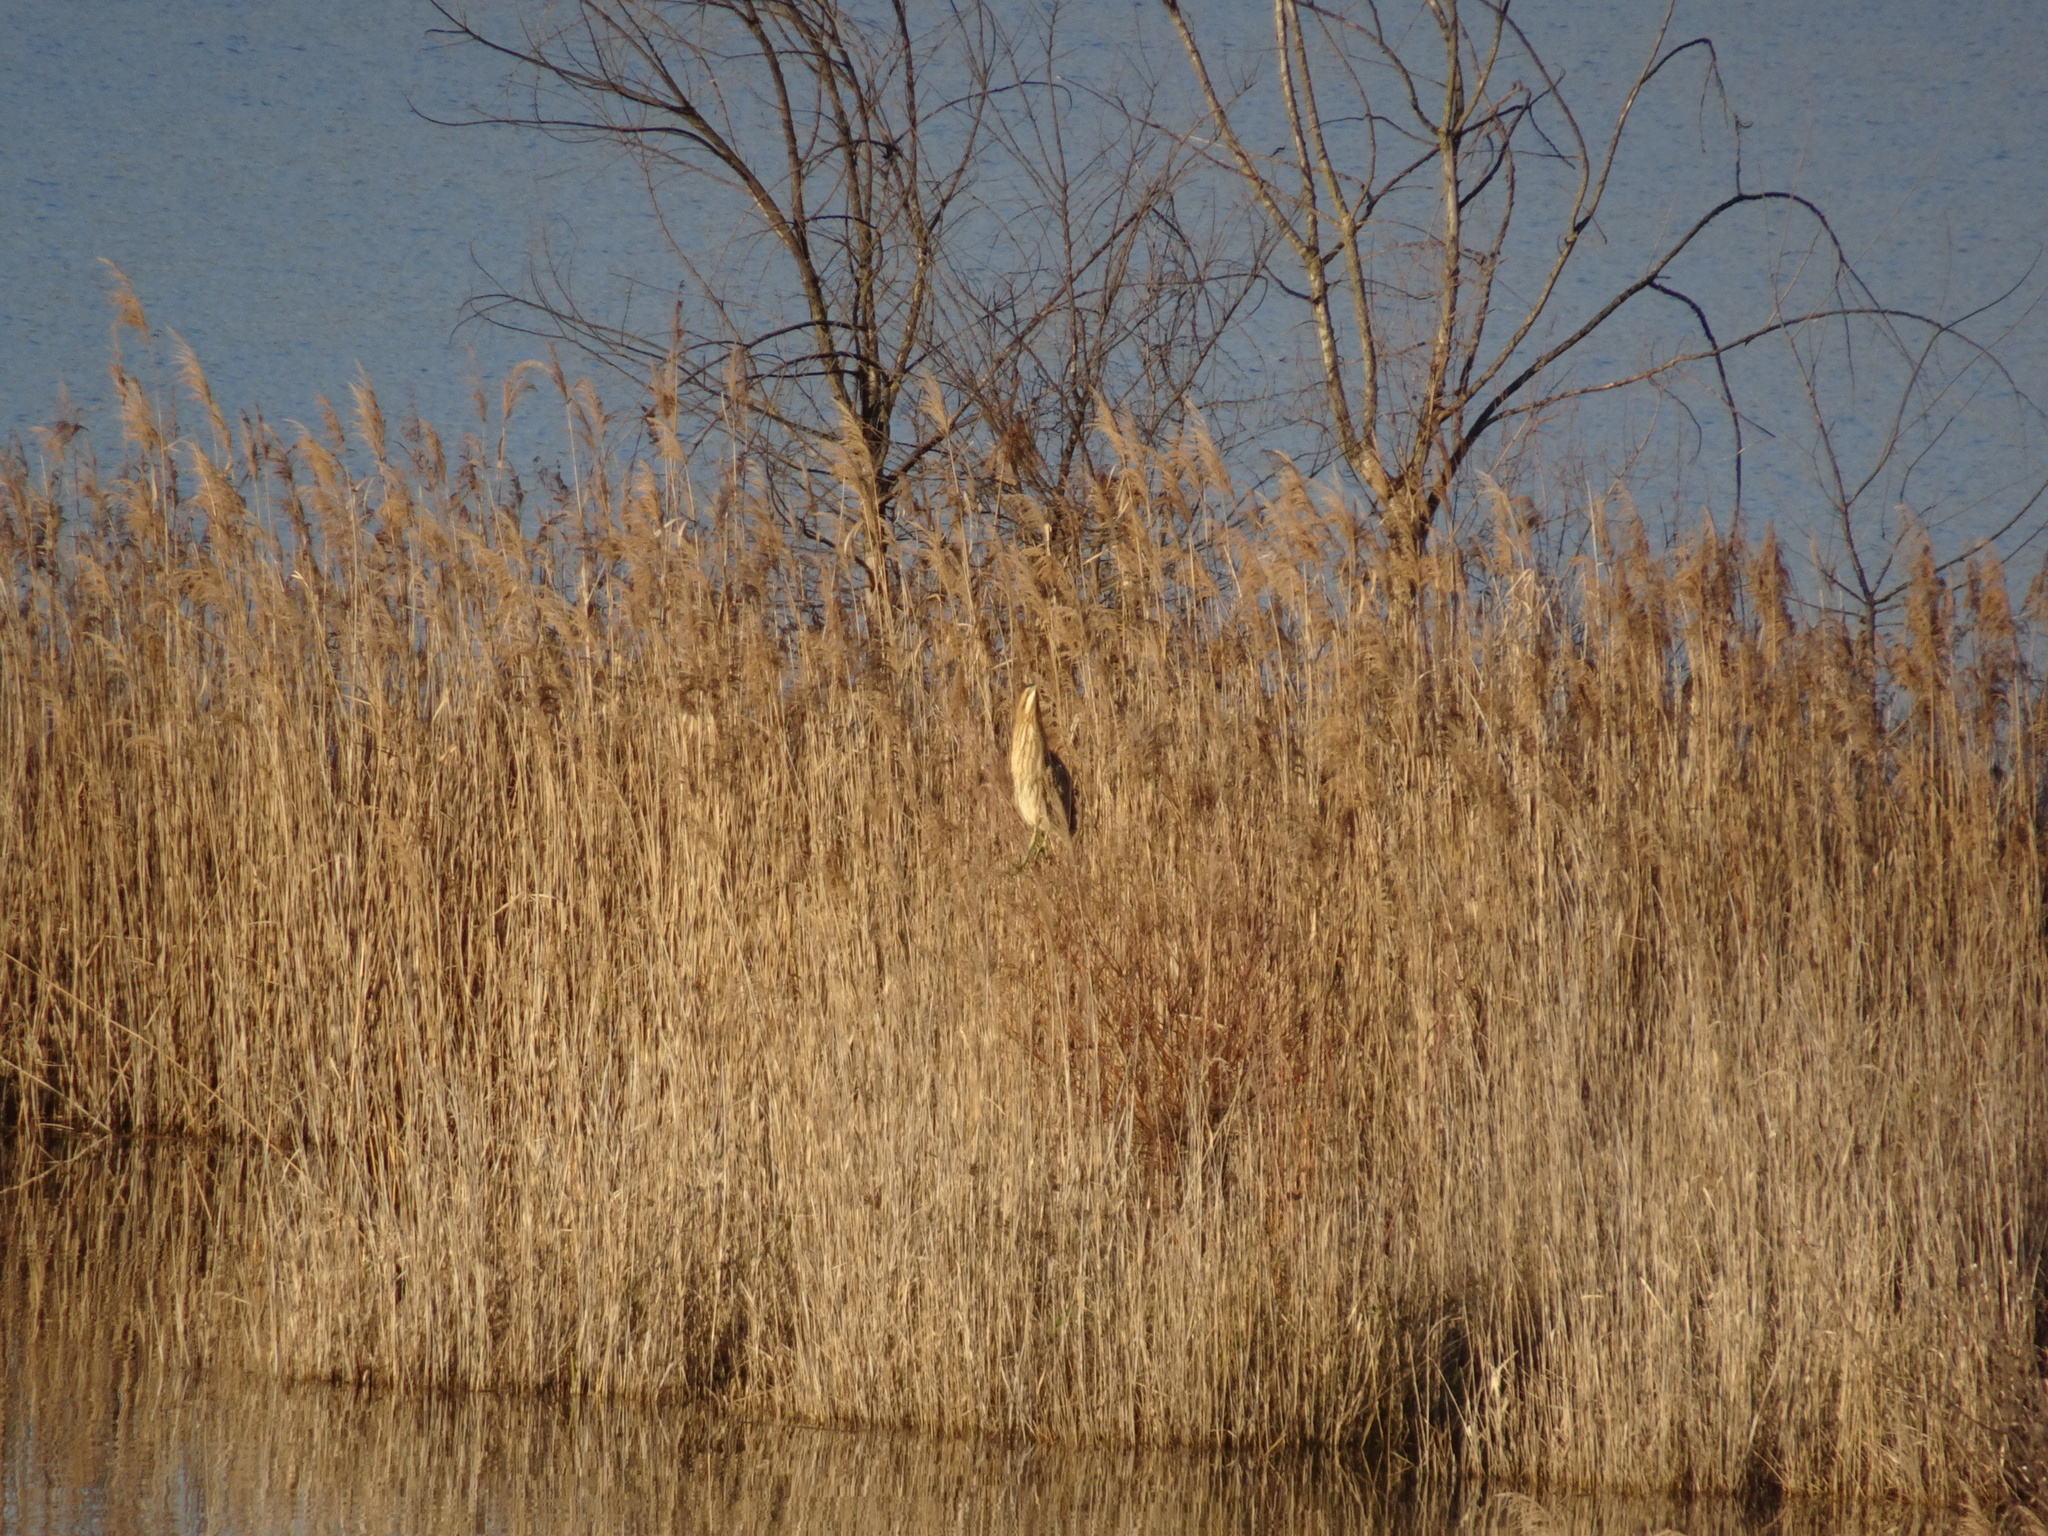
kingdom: Animalia
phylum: Chordata
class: Aves
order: Pelecaniformes
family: Ardeidae
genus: Botaurus
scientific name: Botaurus stellaris
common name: Eurasian bittern
